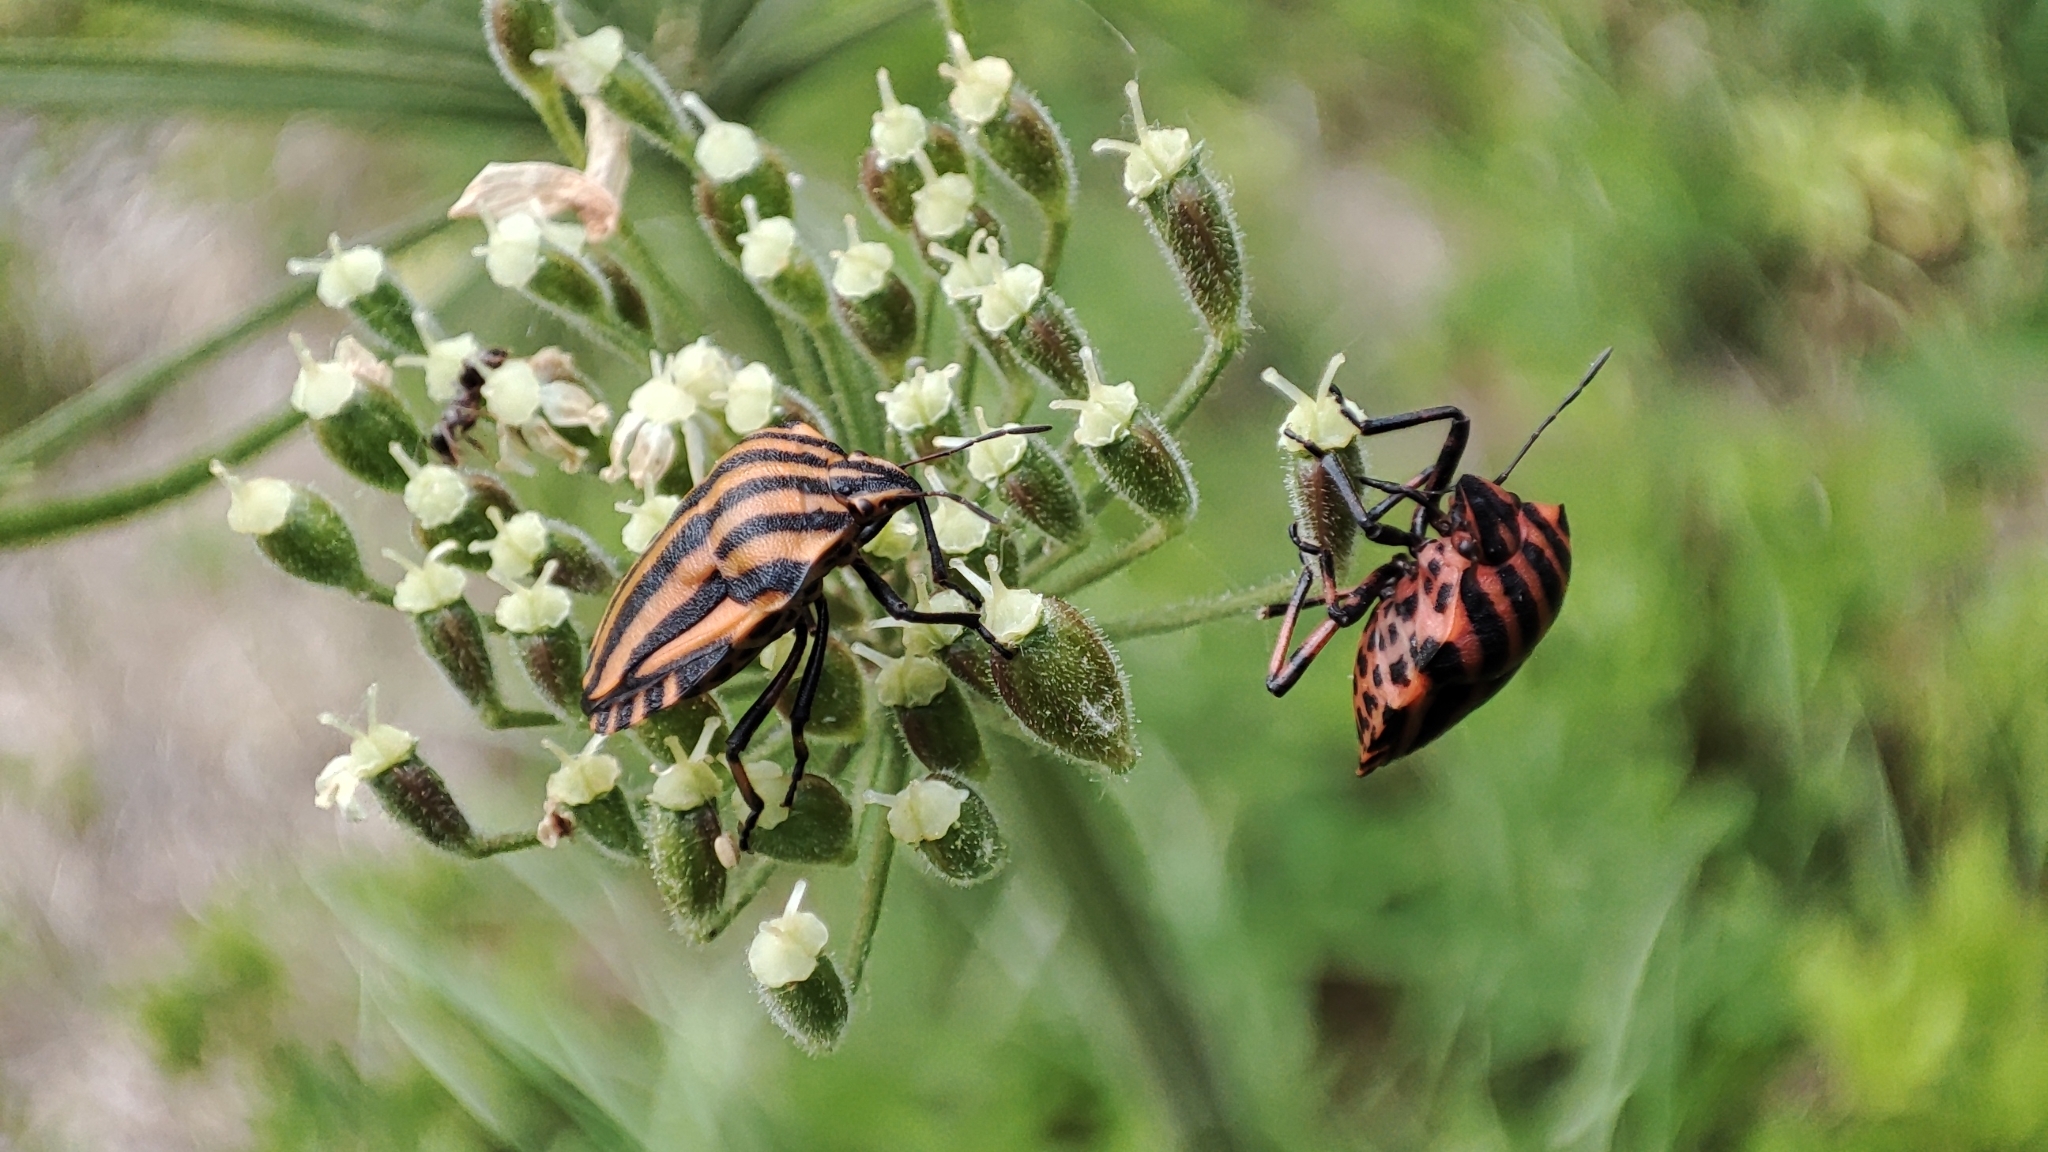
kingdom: Animalia
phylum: Arthropoda
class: Insecta
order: Hemiptera
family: Pentatomidae
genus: Graphosoma
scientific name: Graphosoma italicum
